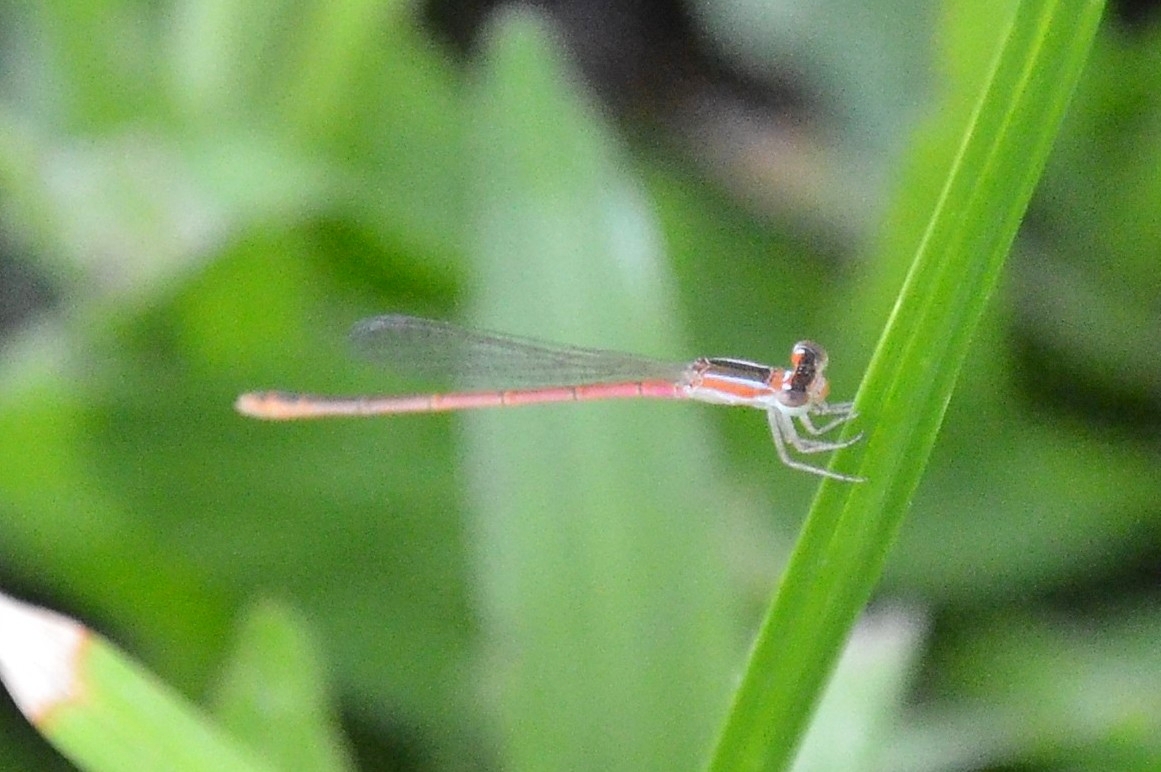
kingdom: Animalia
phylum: Arthropoda
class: Insecta
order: Odonata
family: Coenagrionidae
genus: Agriocnemis
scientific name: Agriocnemis pygmaea
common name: Pygmy wisp
